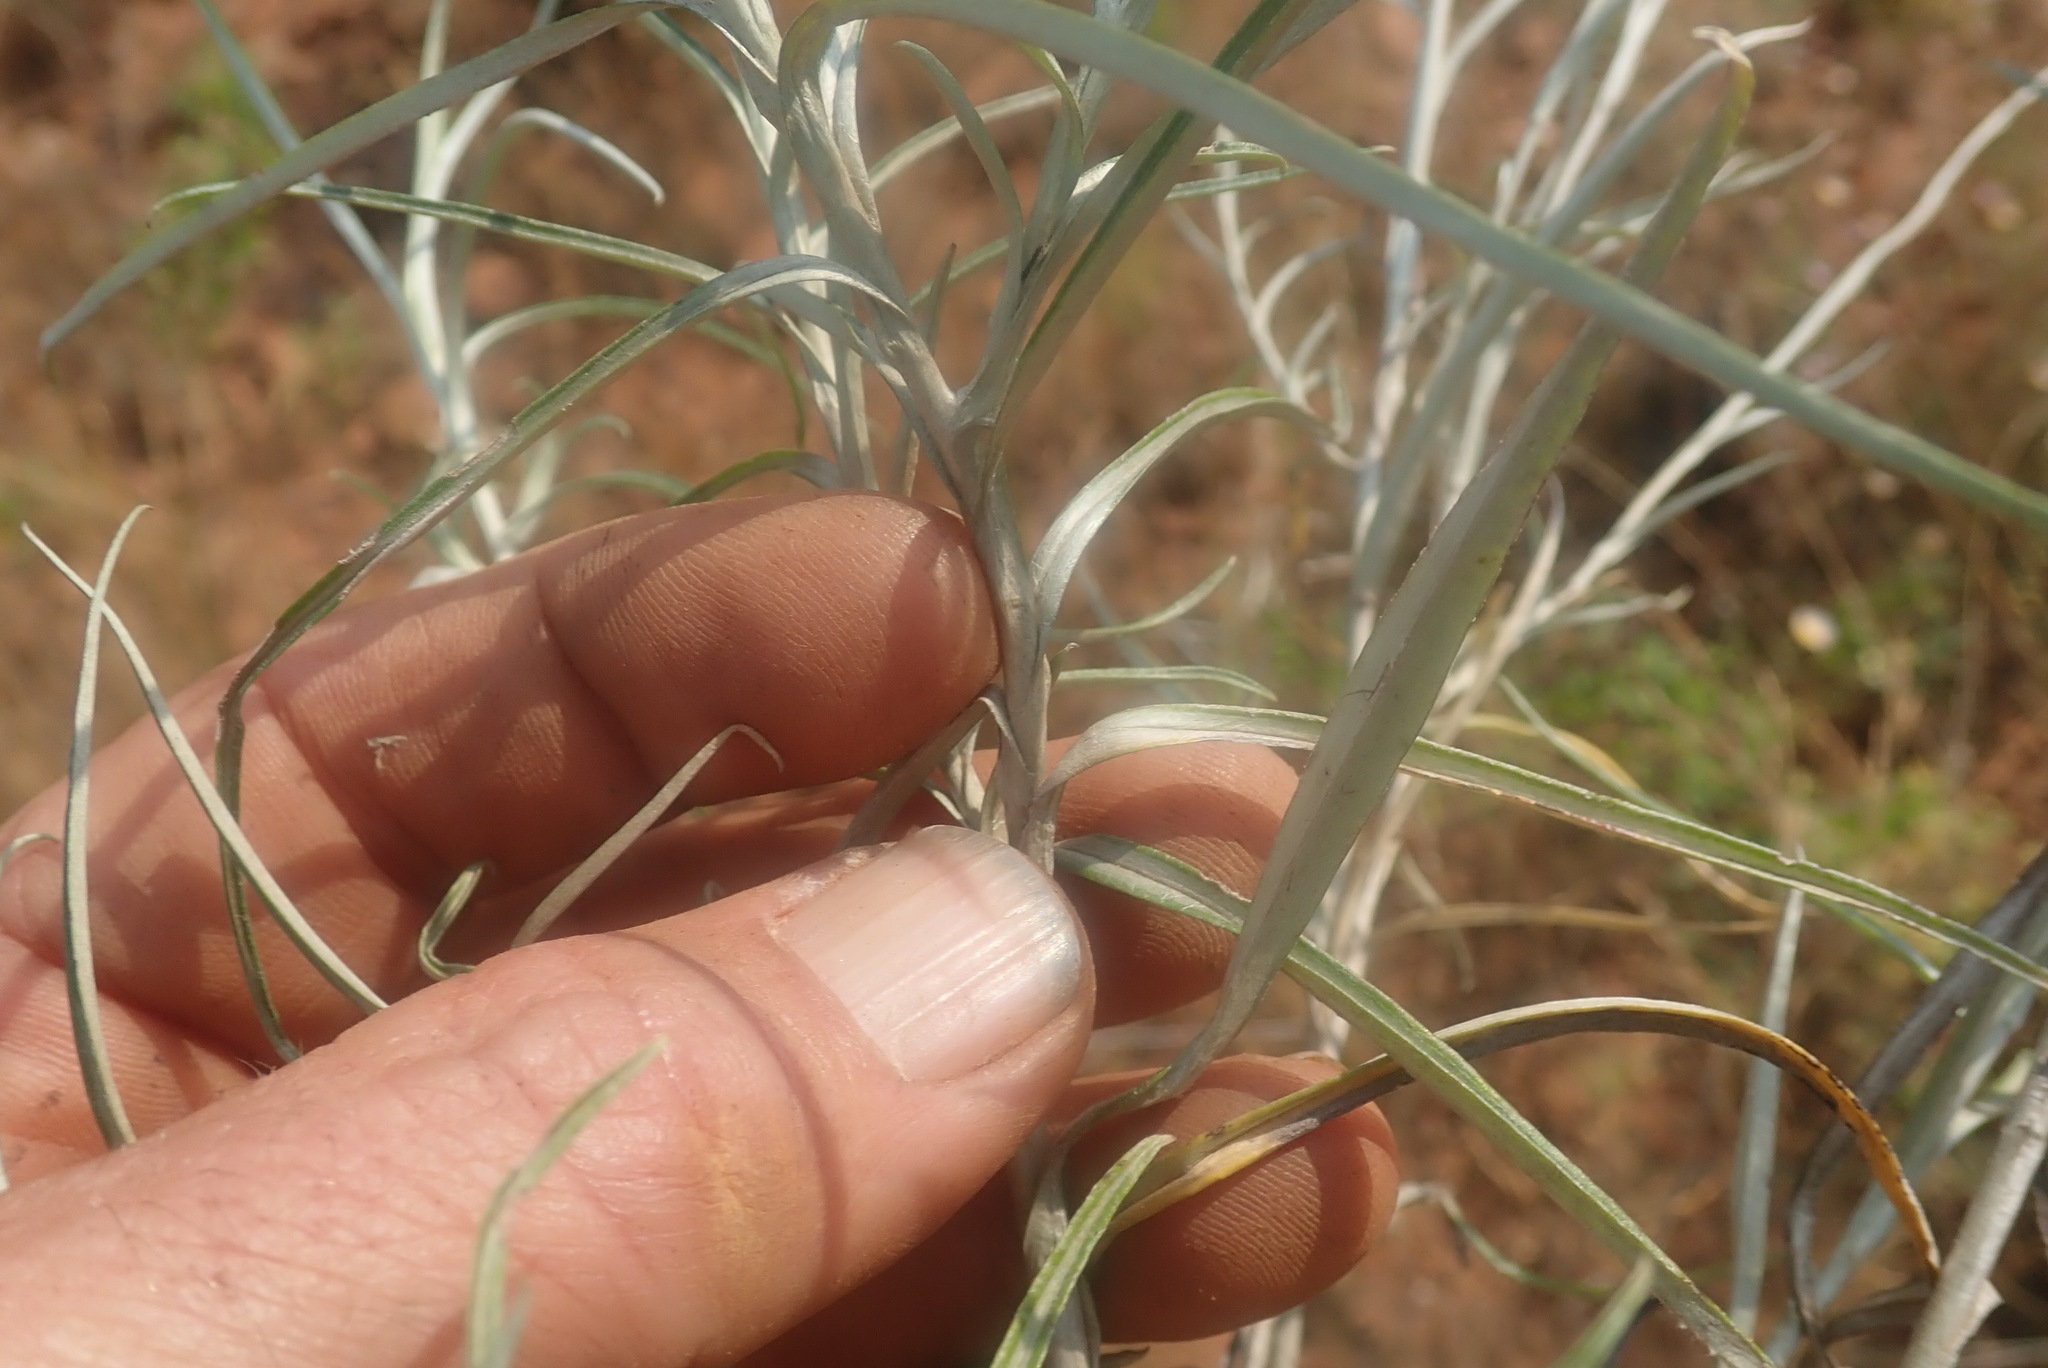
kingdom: Plantae
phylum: Tracheophyta
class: Magnoliopsida
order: Asterales
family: Asteraceae
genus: Helichrysum
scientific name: Helichrysum chrysargyrum
